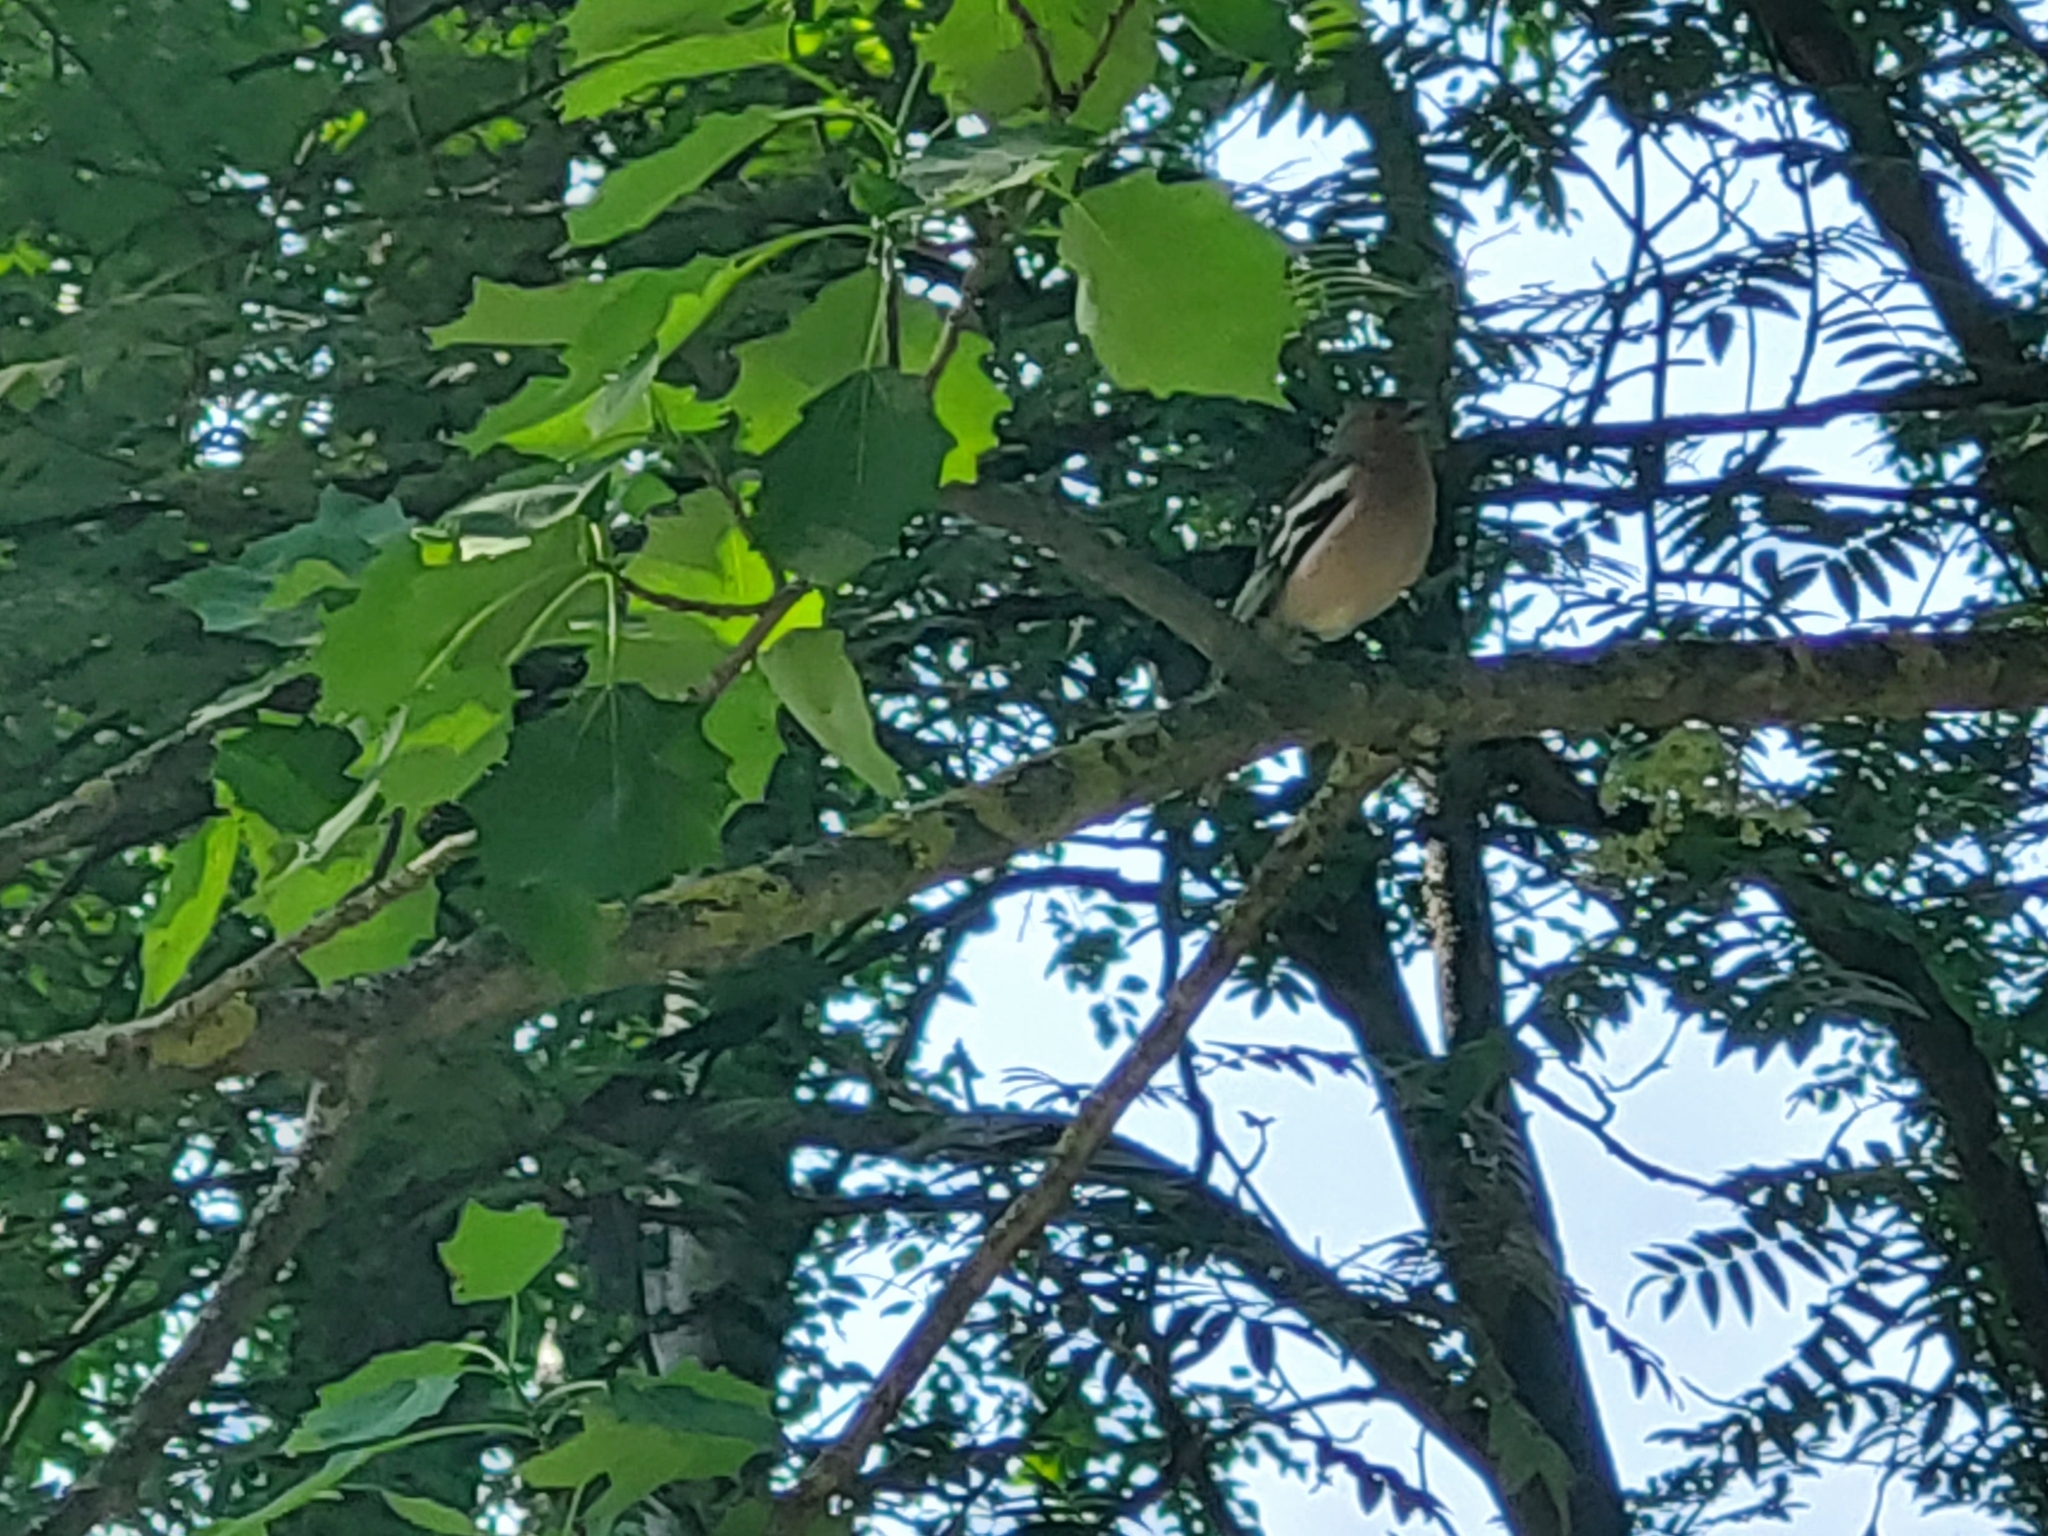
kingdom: Animalia
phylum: Chordata
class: Aves
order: Passeriformes
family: Fringillidae
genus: Fringilla
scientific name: Fringilla coelebs
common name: Common chaffinch
